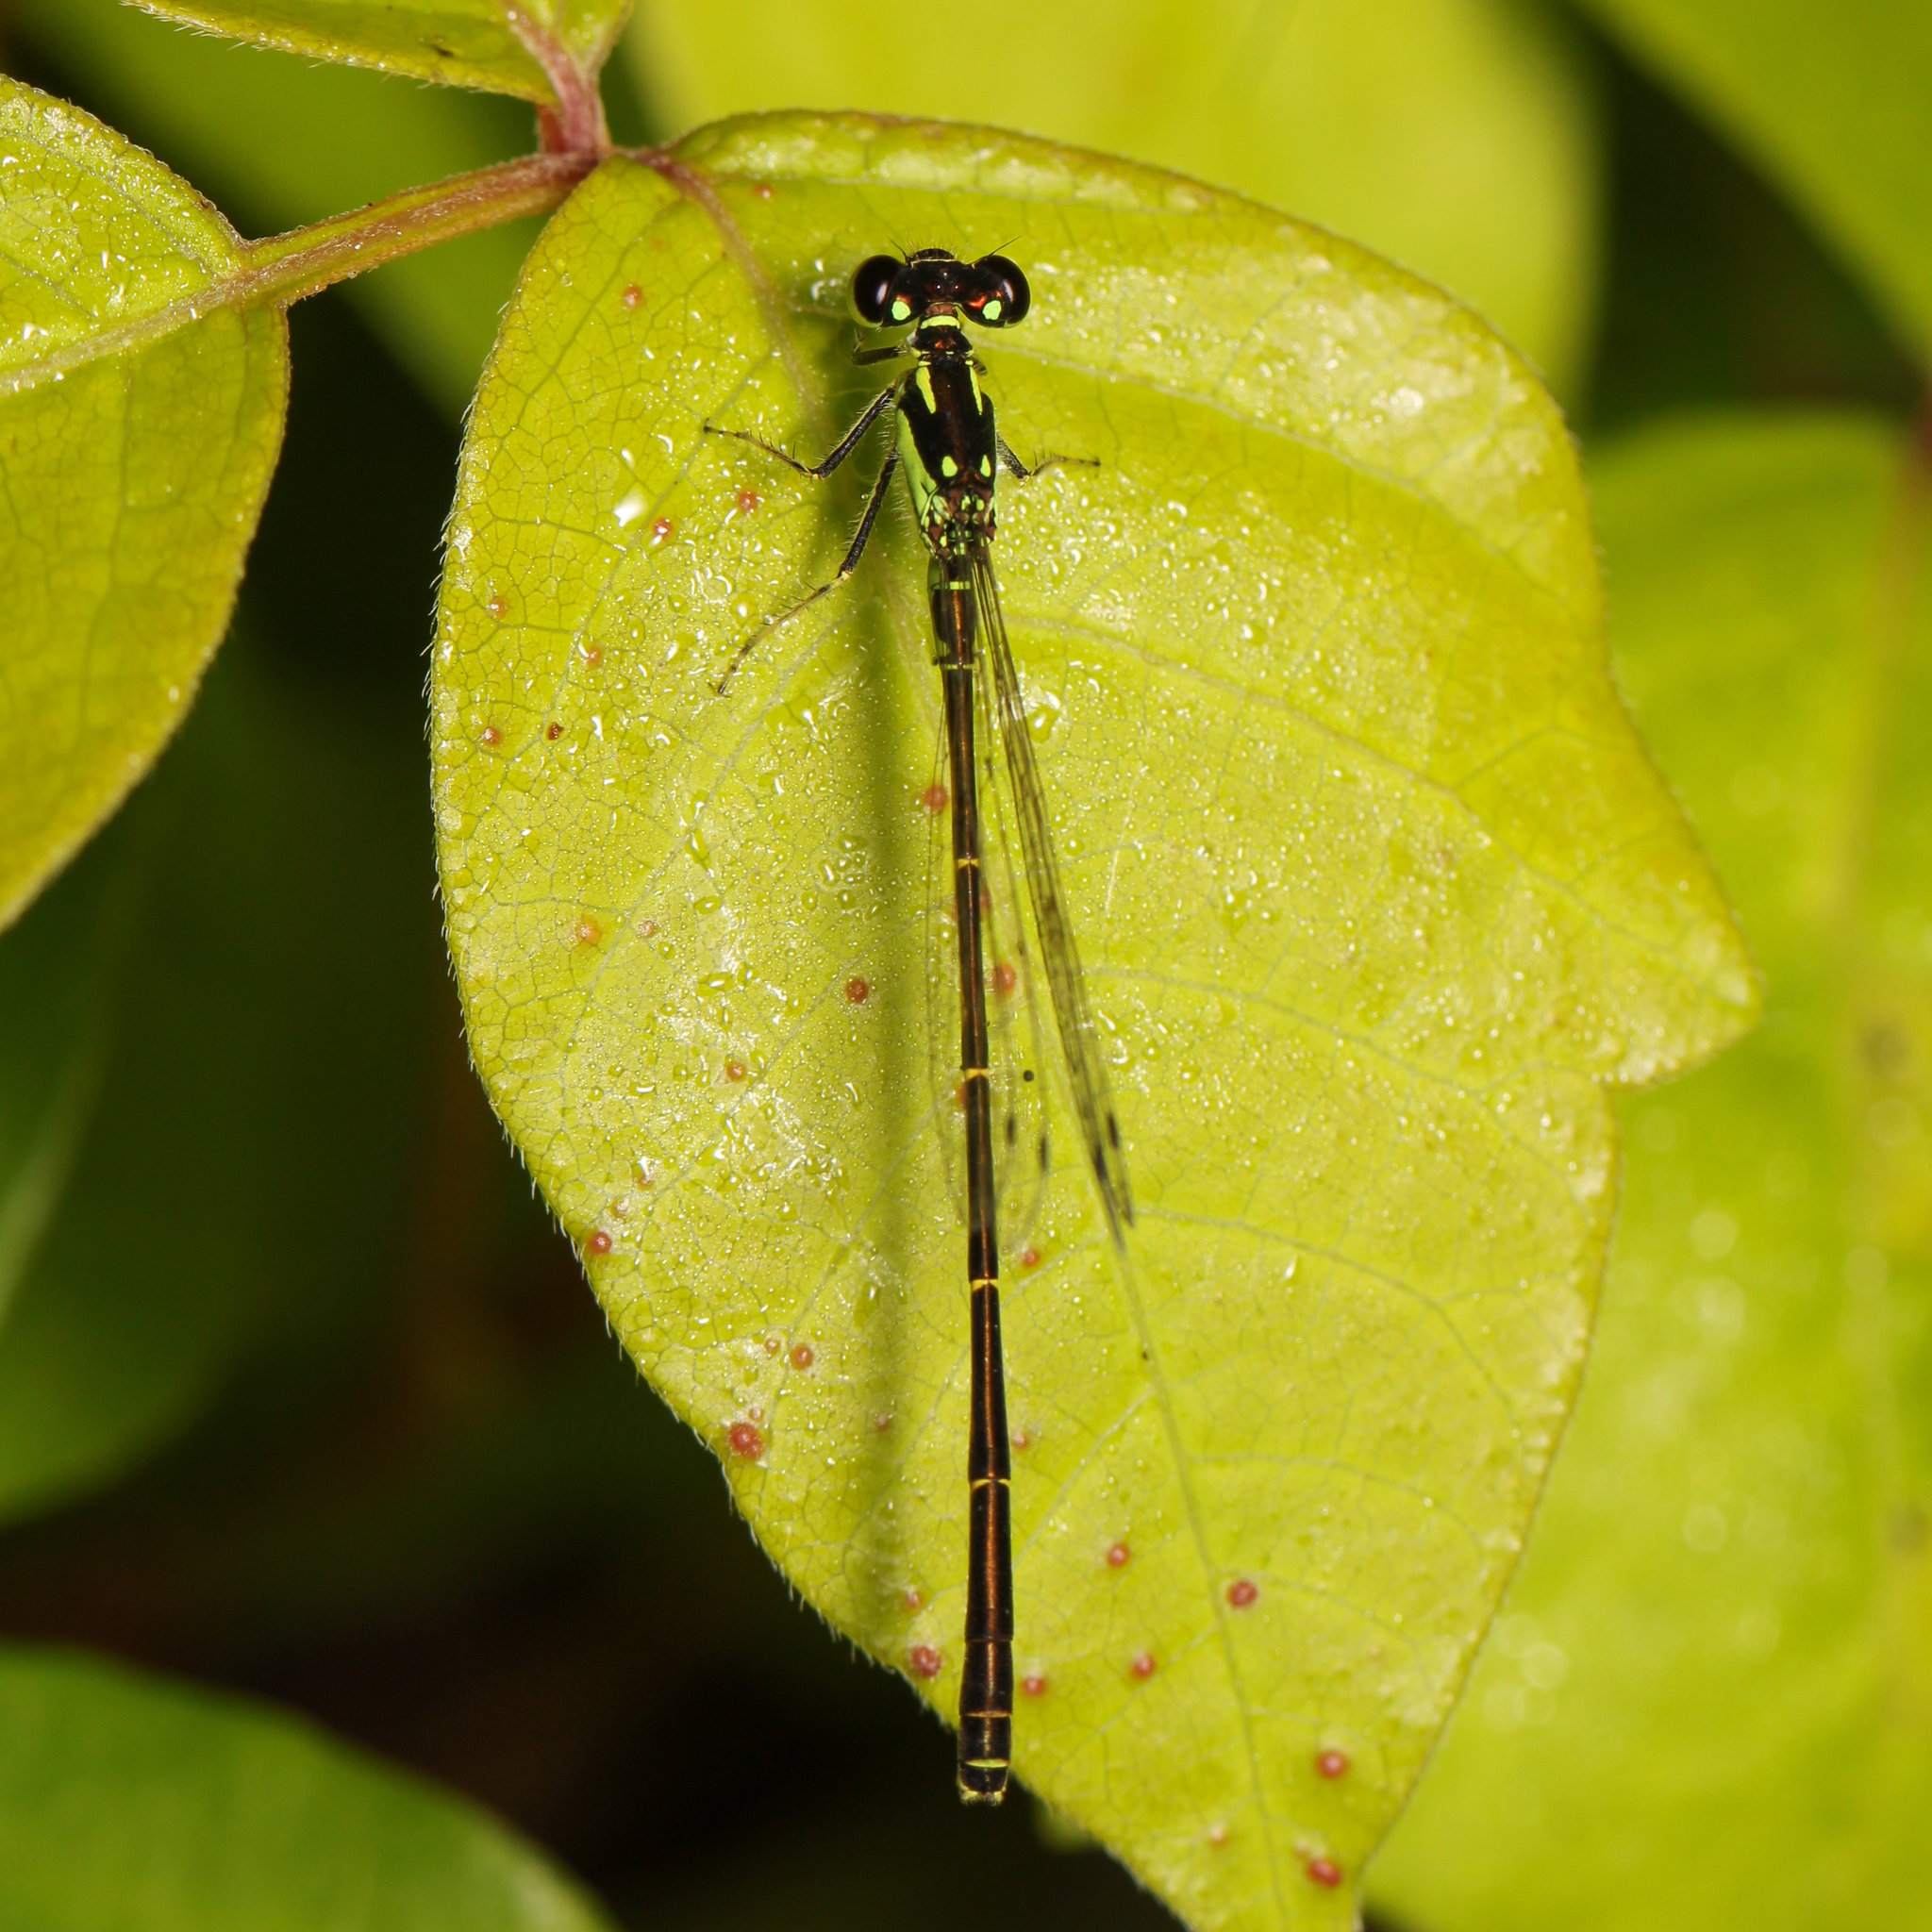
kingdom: Animalia
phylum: Arthropoda
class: Insecta
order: Odonata
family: Coenagrionidae
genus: Ischnura
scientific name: Ischnura posita
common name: Fragile forktail
